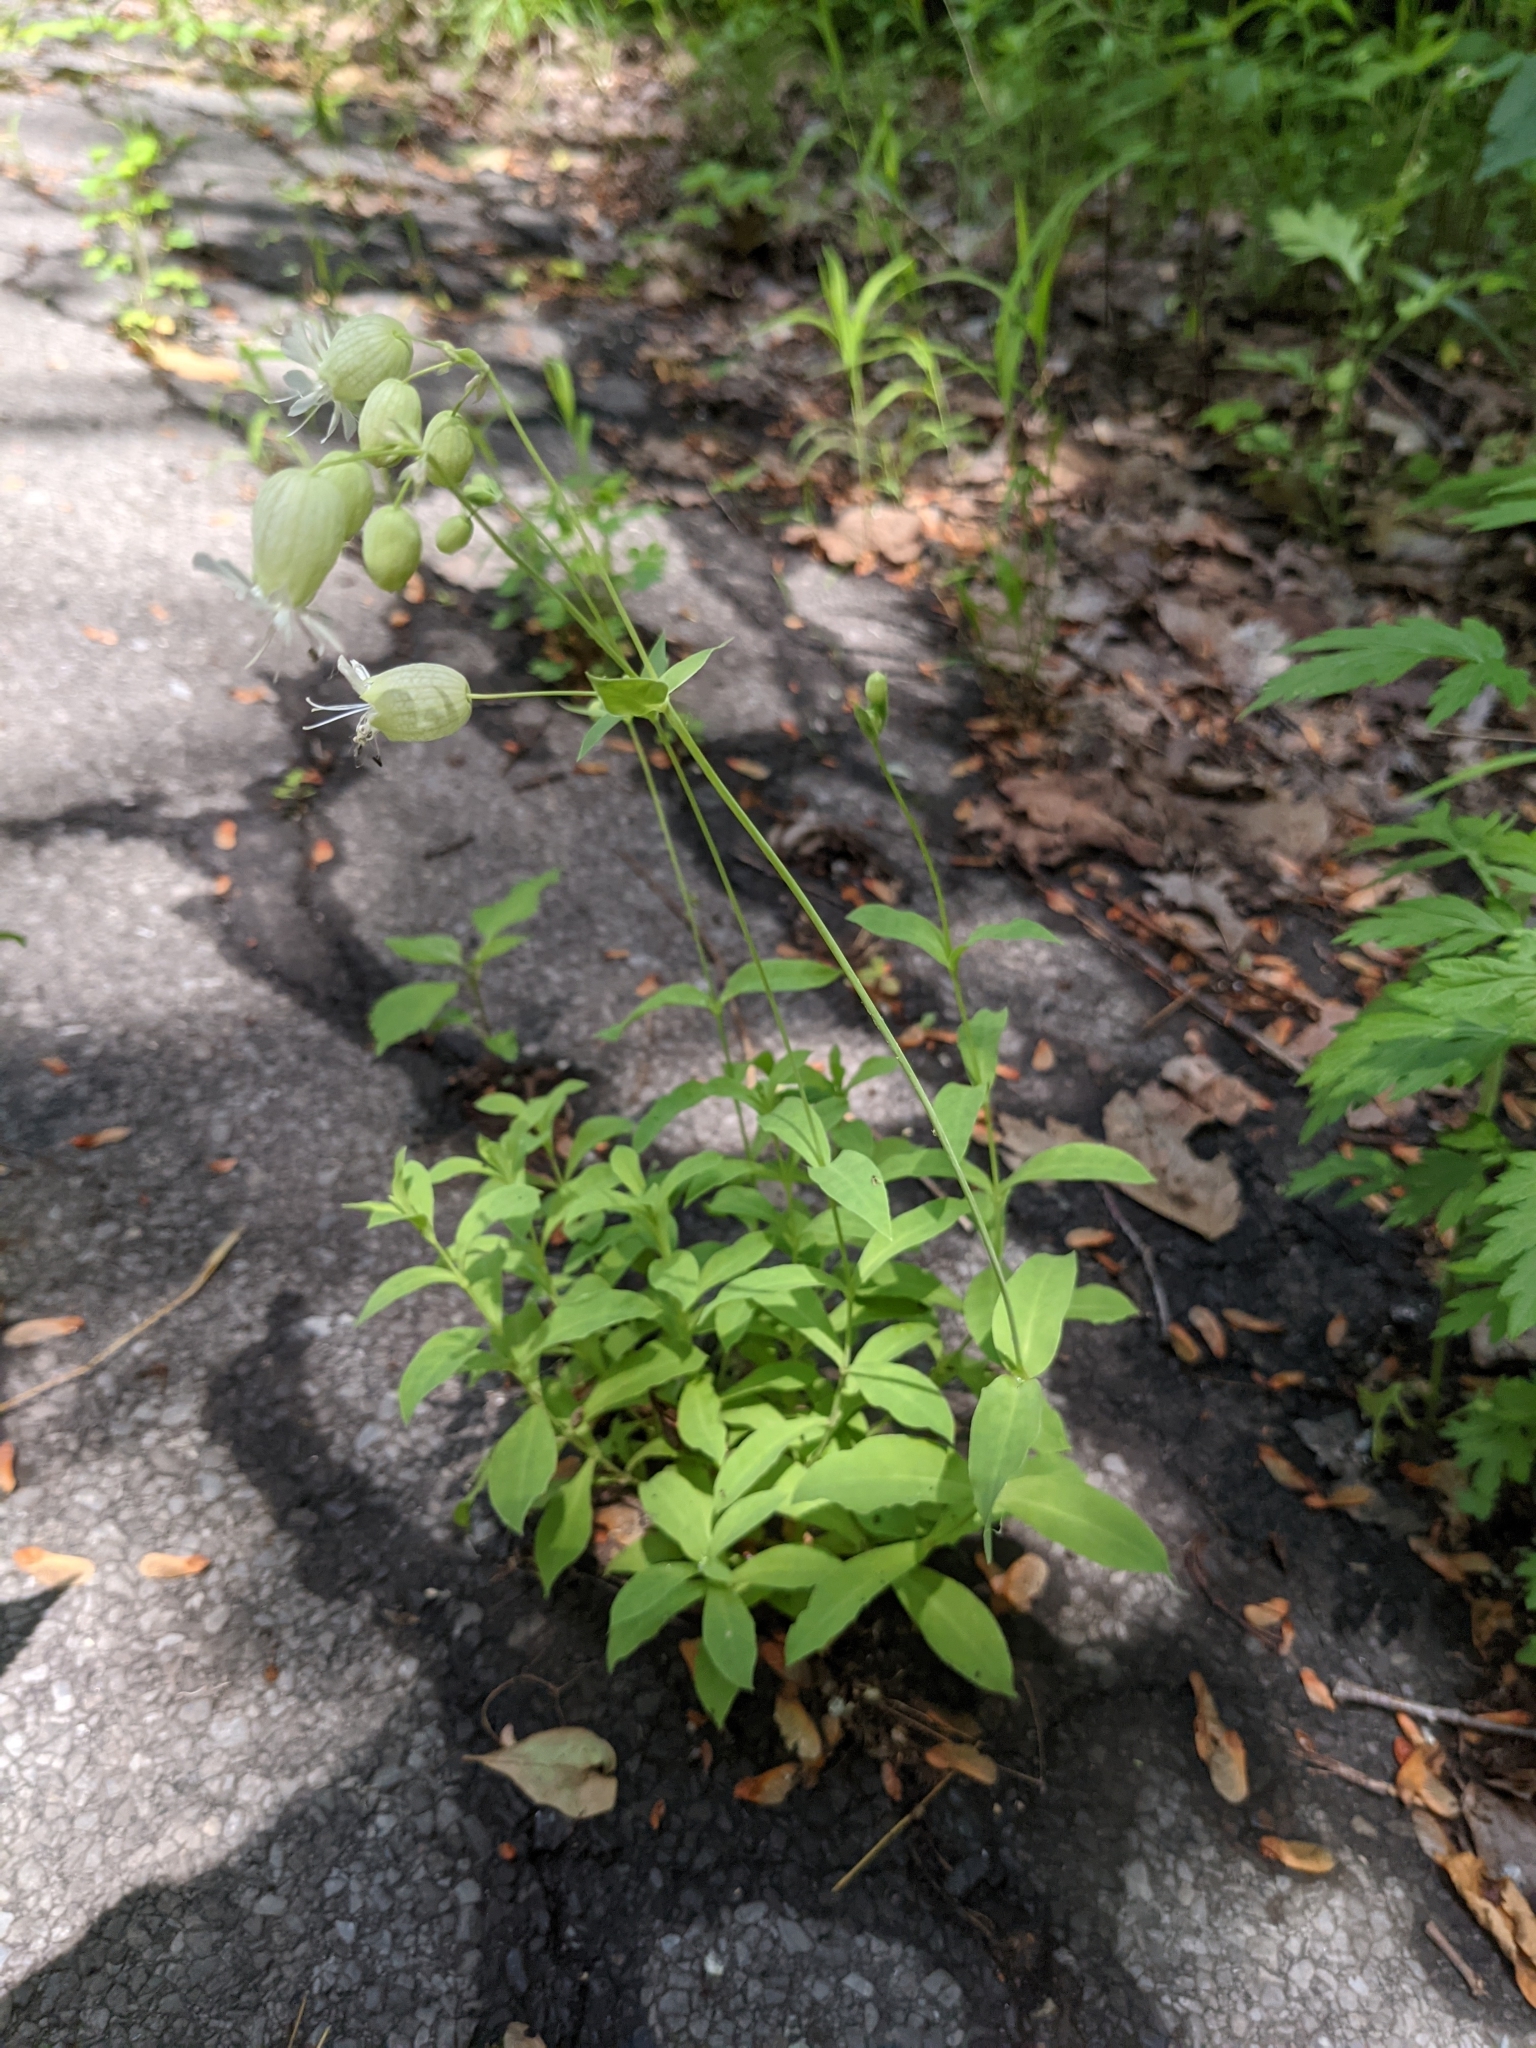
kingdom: Plantae
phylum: Tracheophyta
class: Magnoliopsida
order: Caryophyllales
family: Caryophyllaceae
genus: Silene
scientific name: Silene vulgaris
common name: Bladder campion
